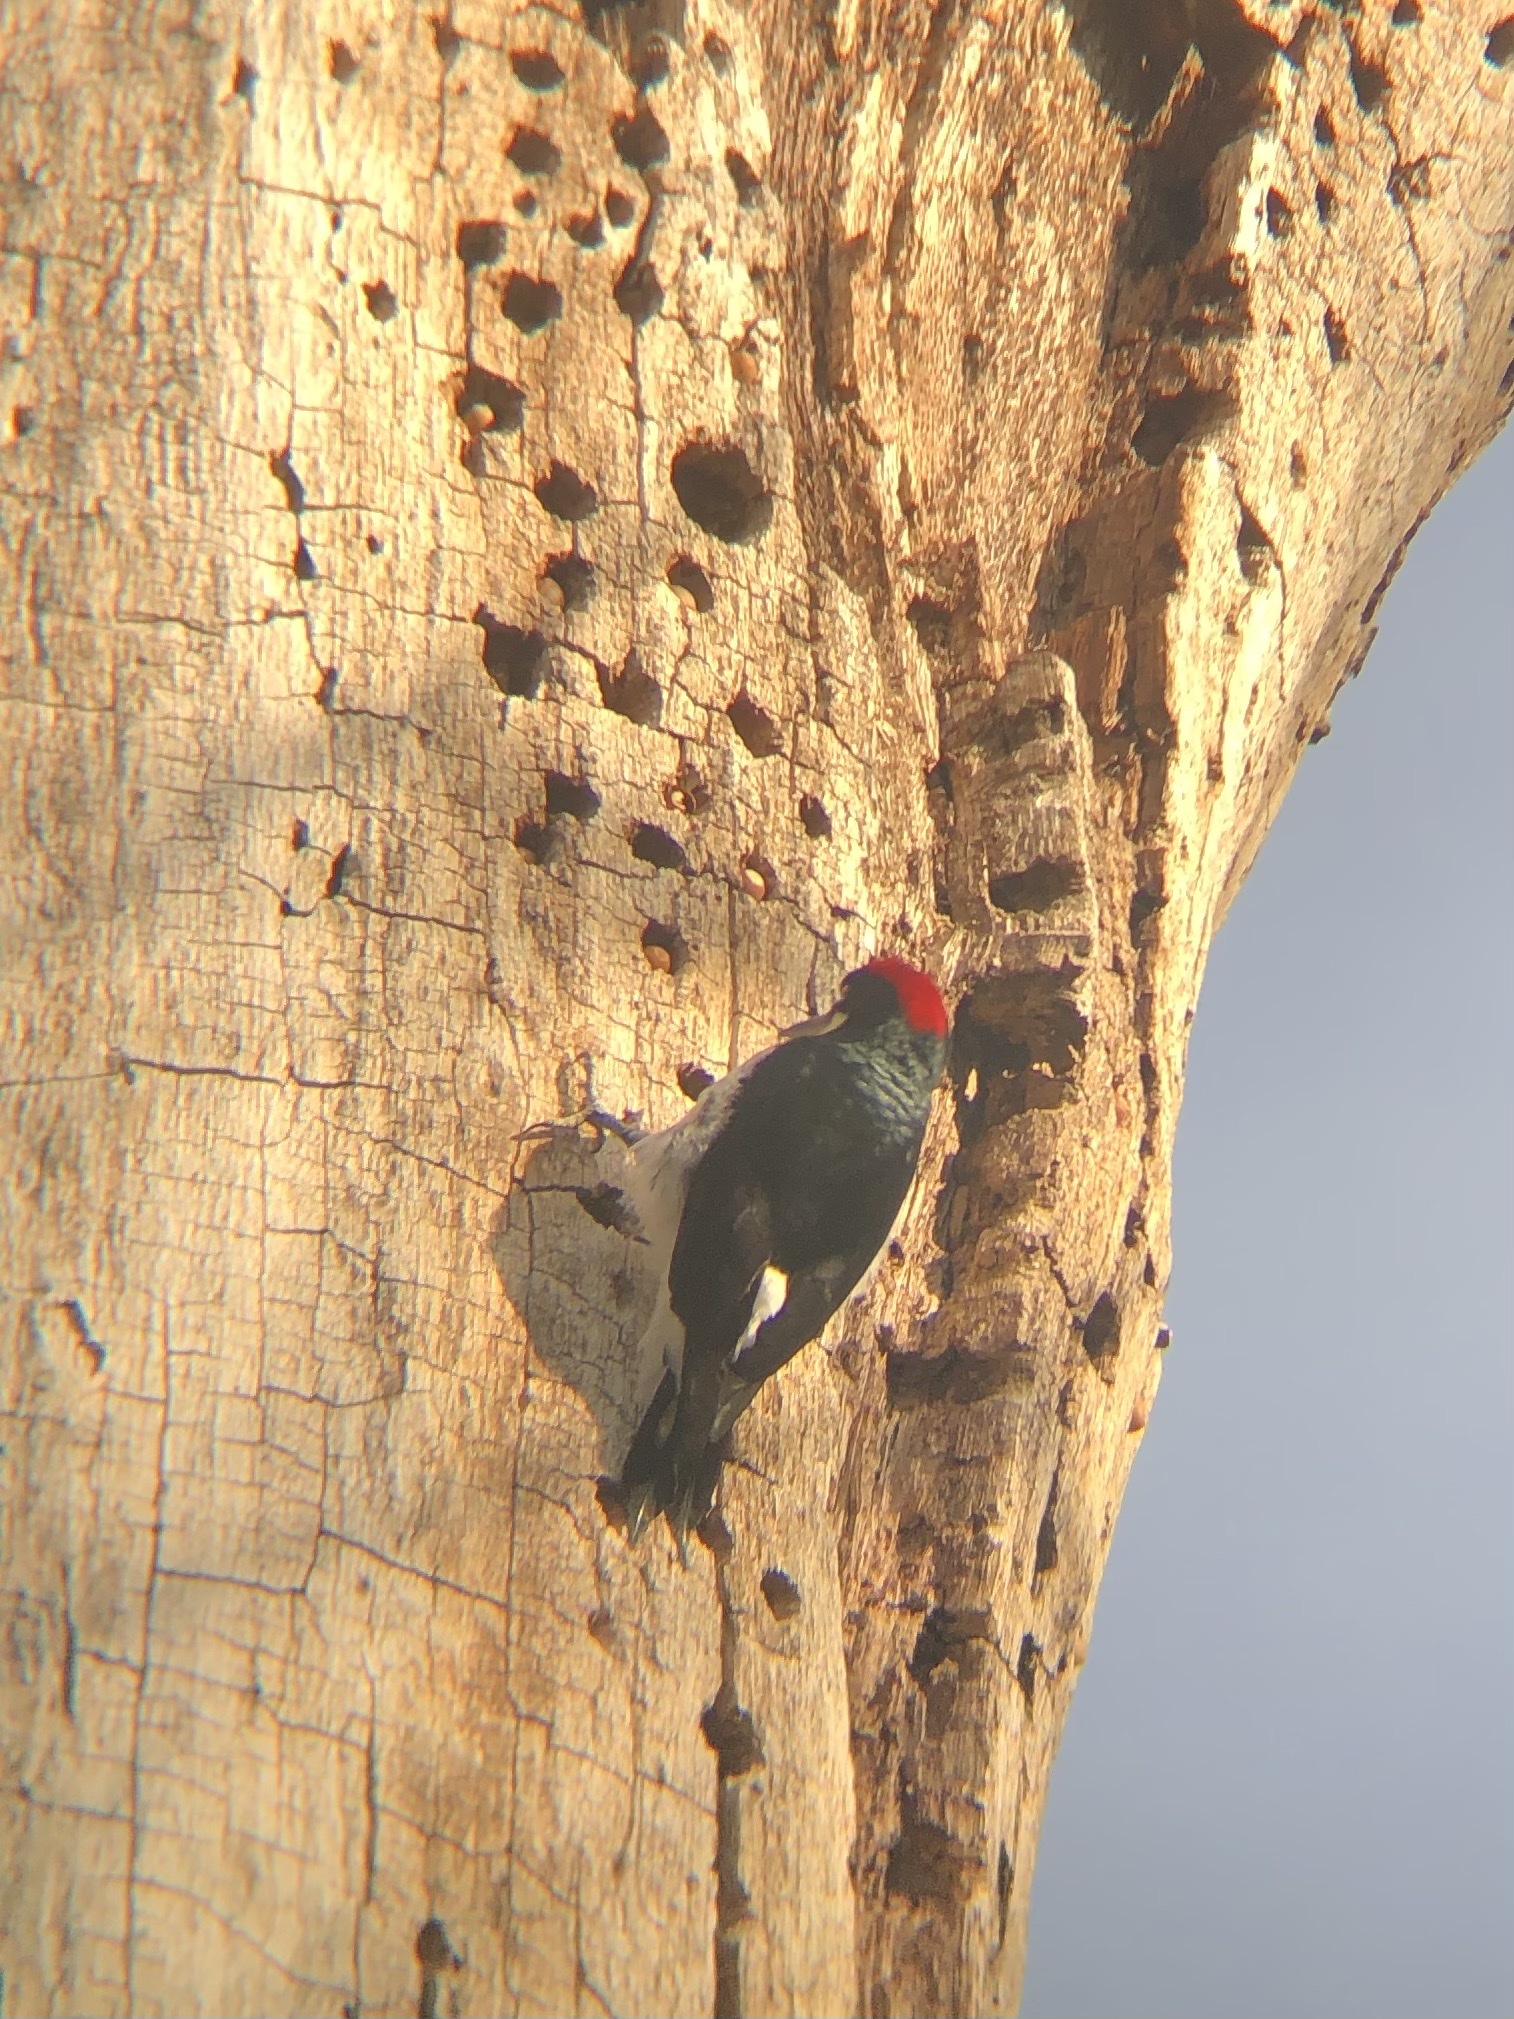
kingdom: Animalia
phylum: Chordata
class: Aves
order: Piciformes
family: Picidae
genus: Melanerpes
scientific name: Melanerpes formicivorus
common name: Acorn woodpecker
